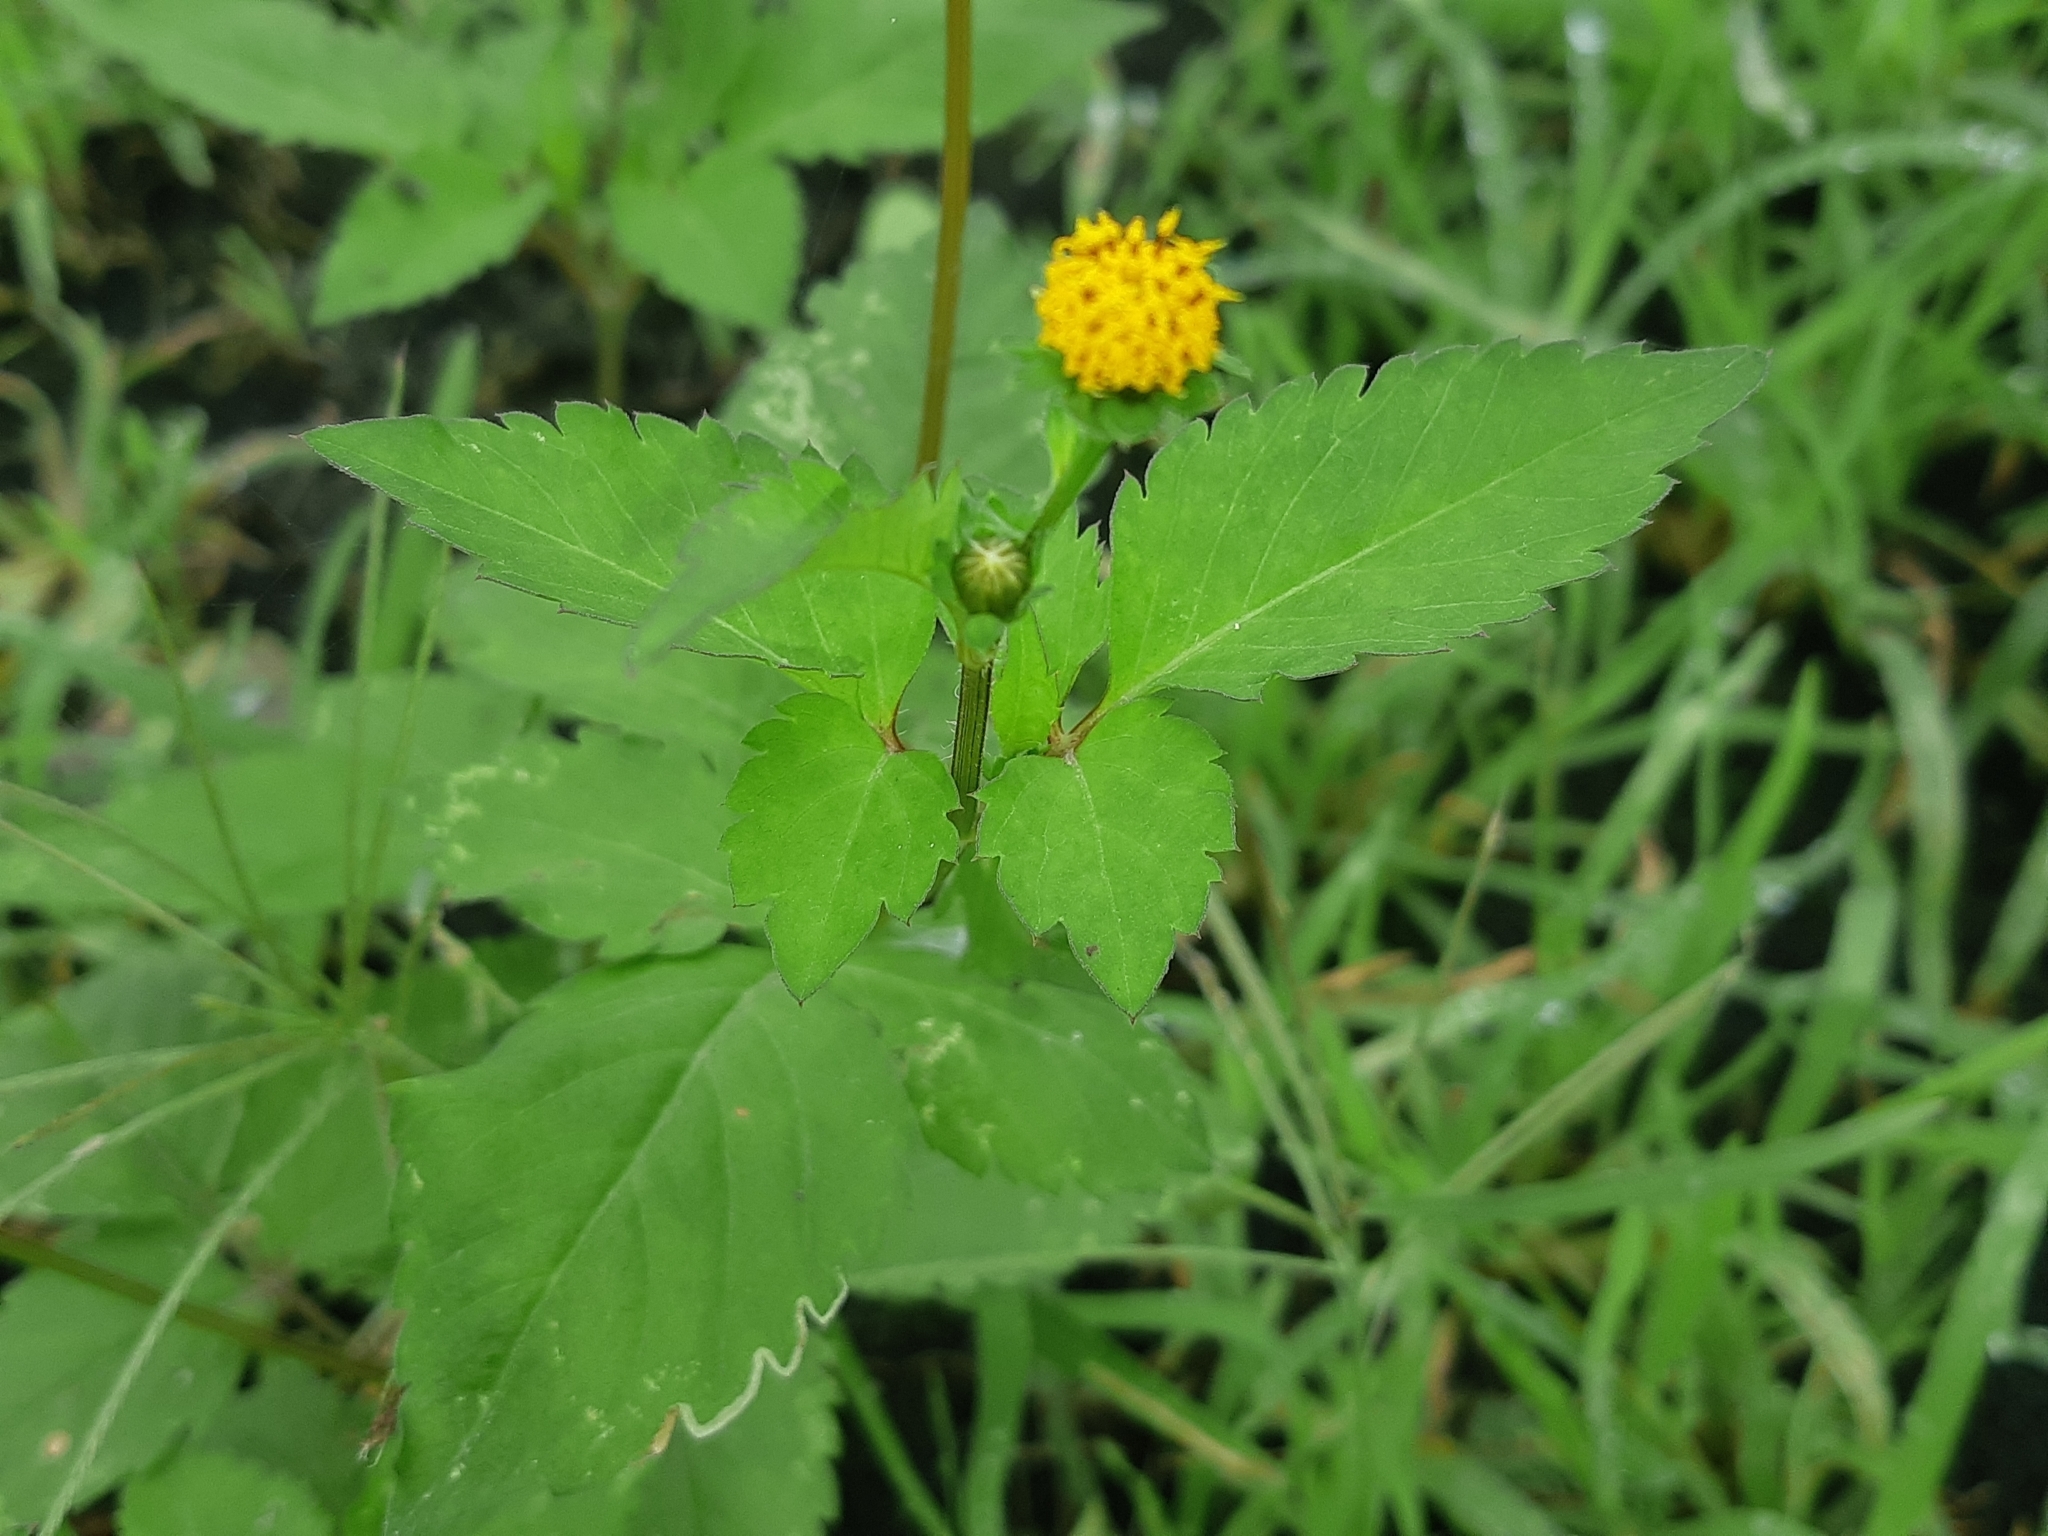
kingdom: Plantae
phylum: Tracheophyta
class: Magnoliopsida
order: Asterales
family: Asteraceae
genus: Bidens
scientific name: Bidens pilosa
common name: Black-jack
